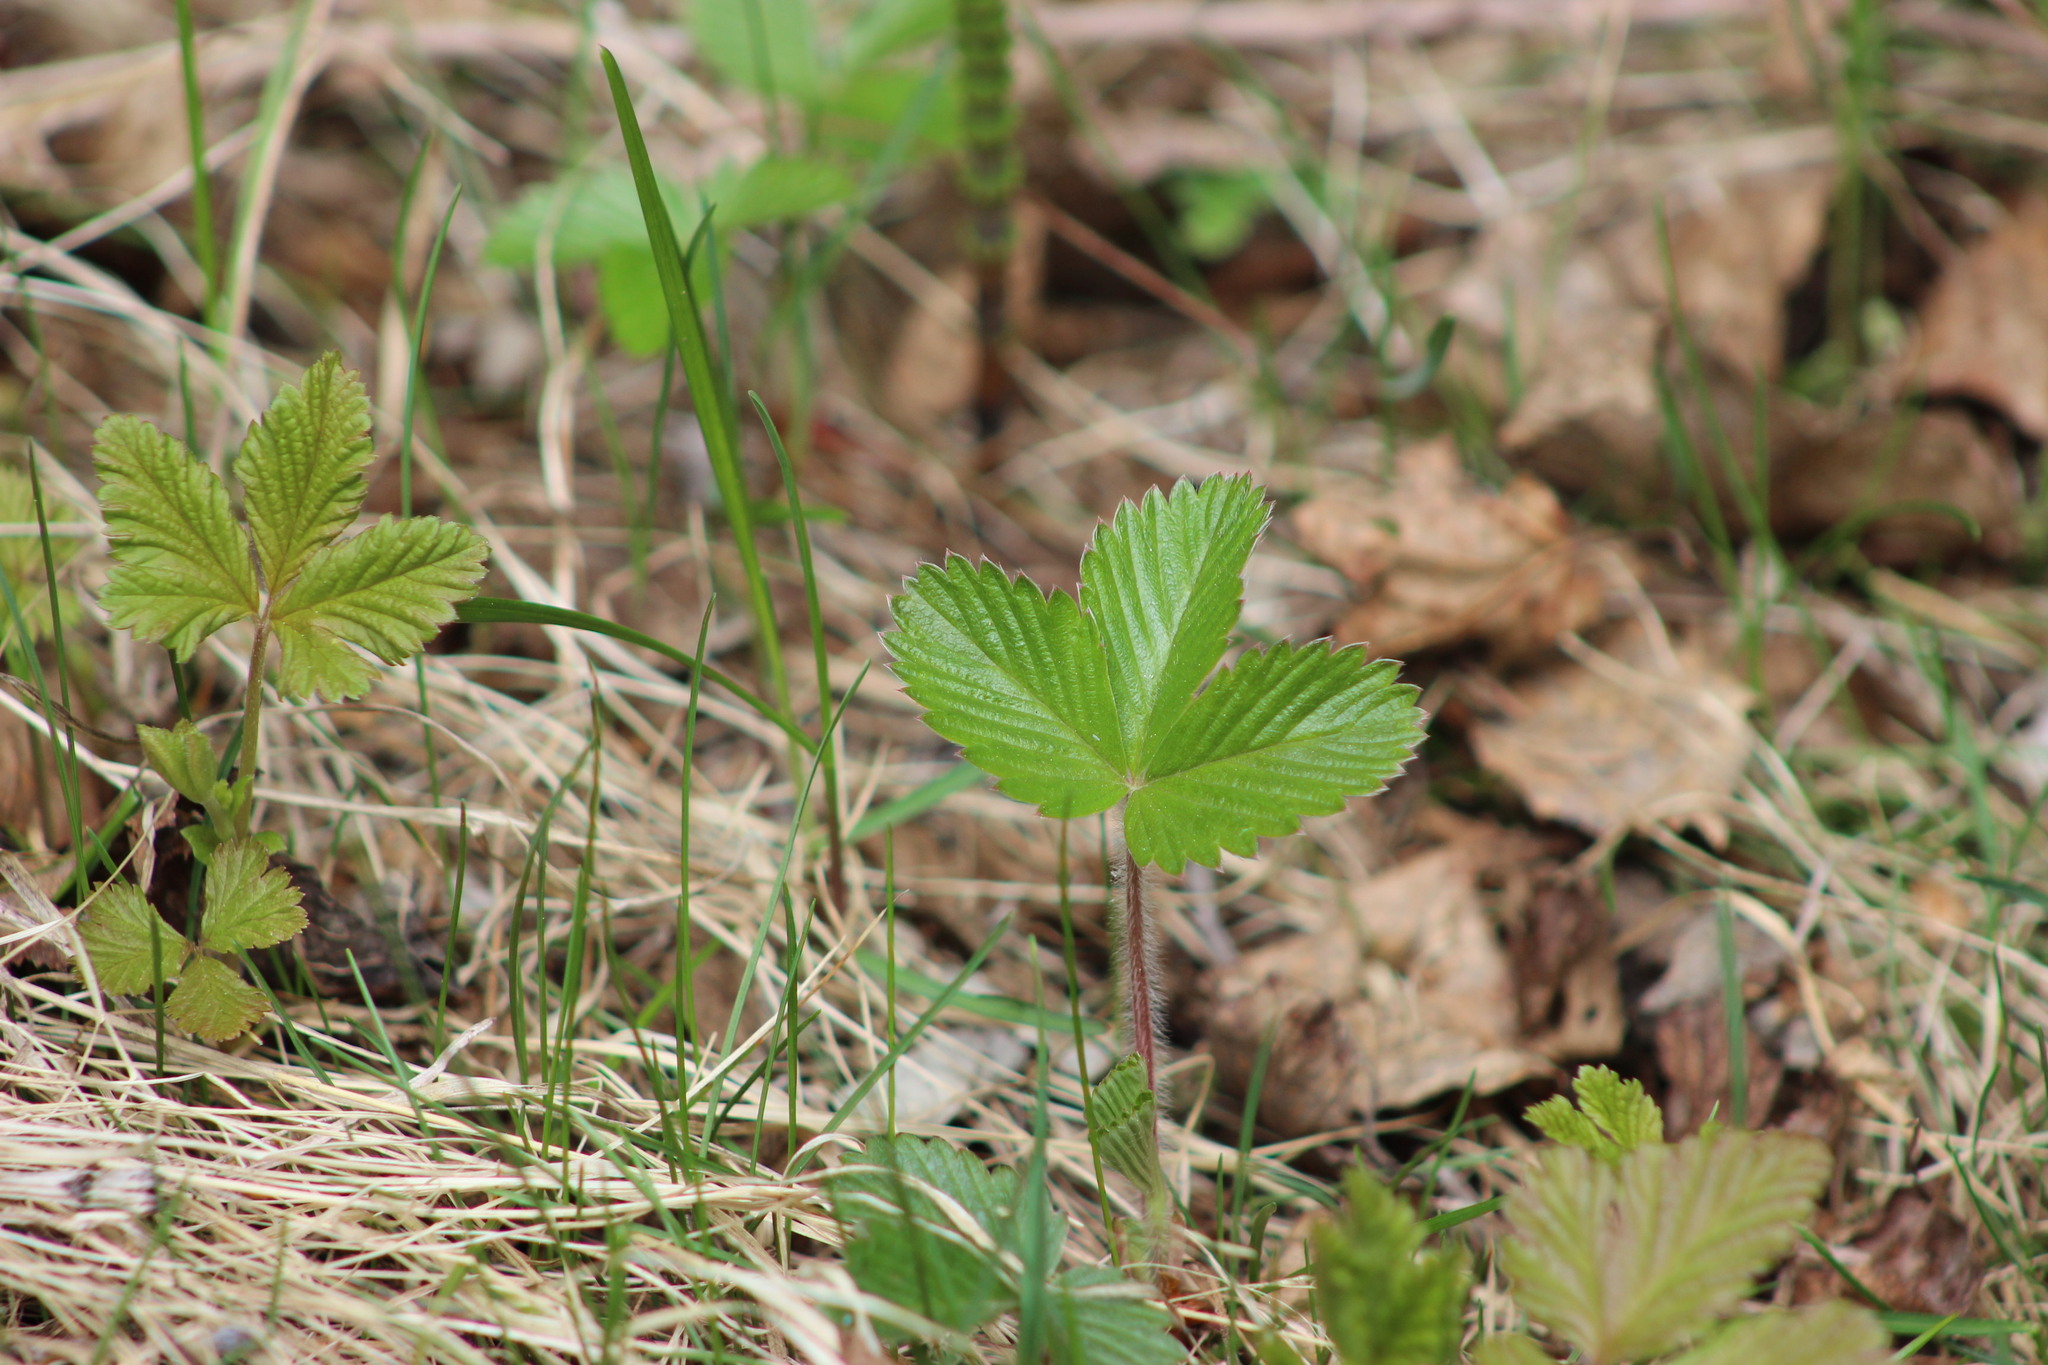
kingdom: Plantae
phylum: Tracheophyta
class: Magnoliopsida
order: Rosales
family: Rosaceae
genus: Fragaria
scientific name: Fragaria vesca
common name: Wild strawberry
